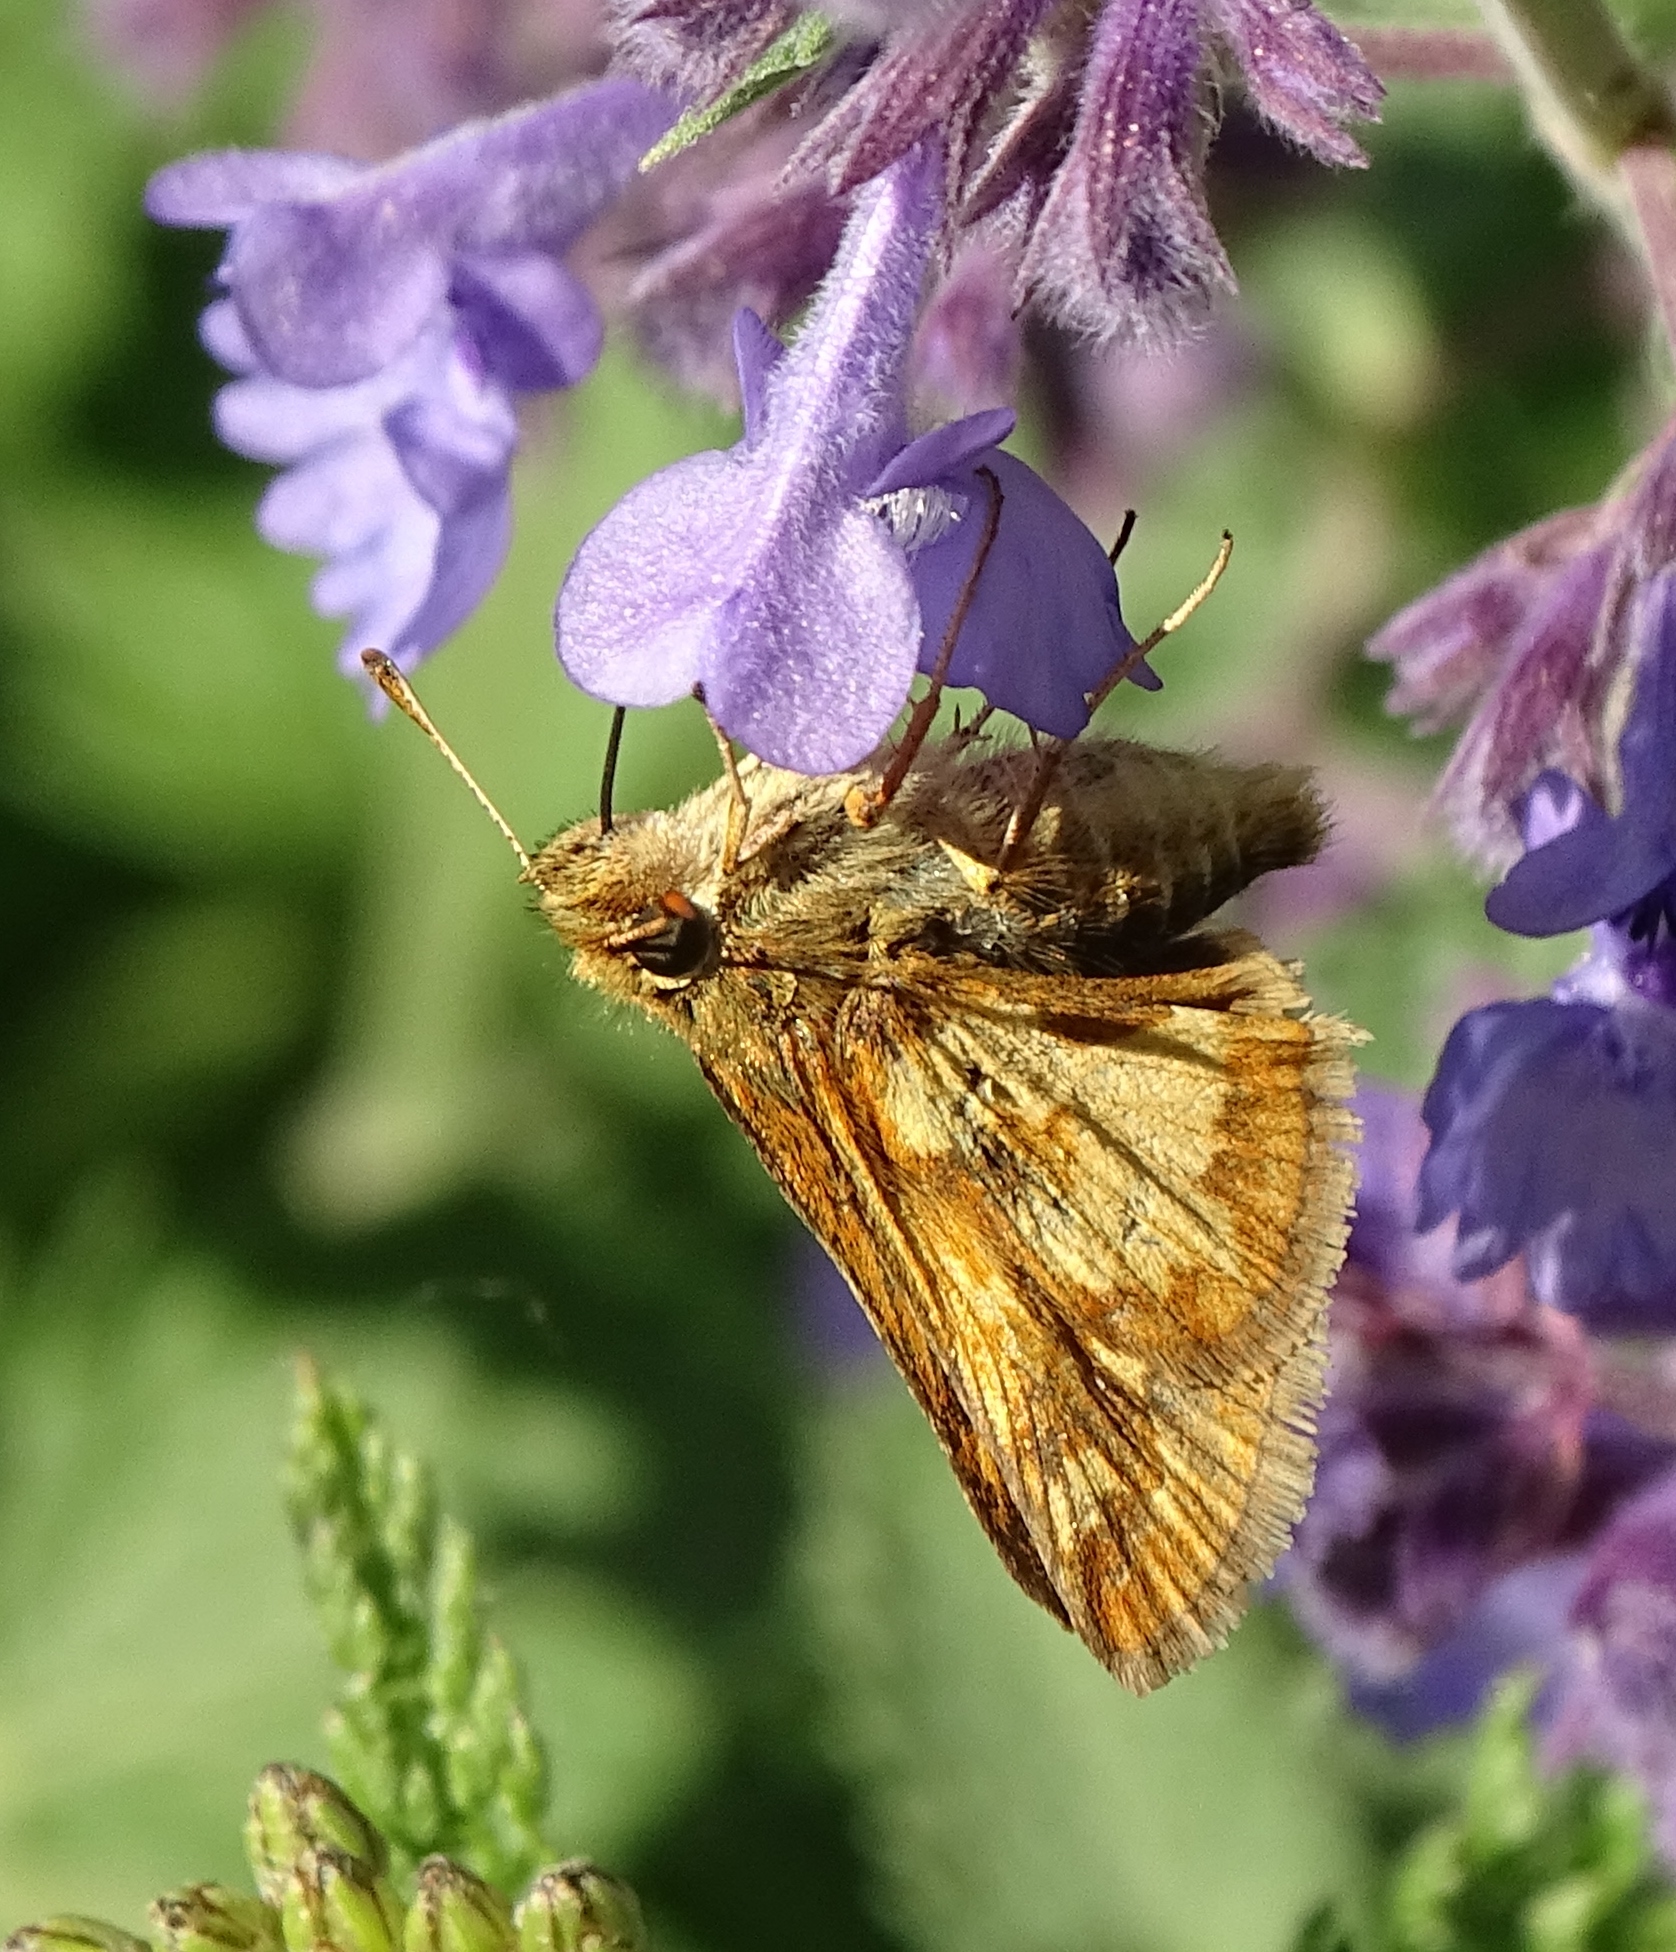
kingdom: Animalia
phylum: Arthropoda
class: Insecta
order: Lepidoptera
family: Hesperiidae
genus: Polites
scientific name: Polites coras
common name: Peck's skipper
